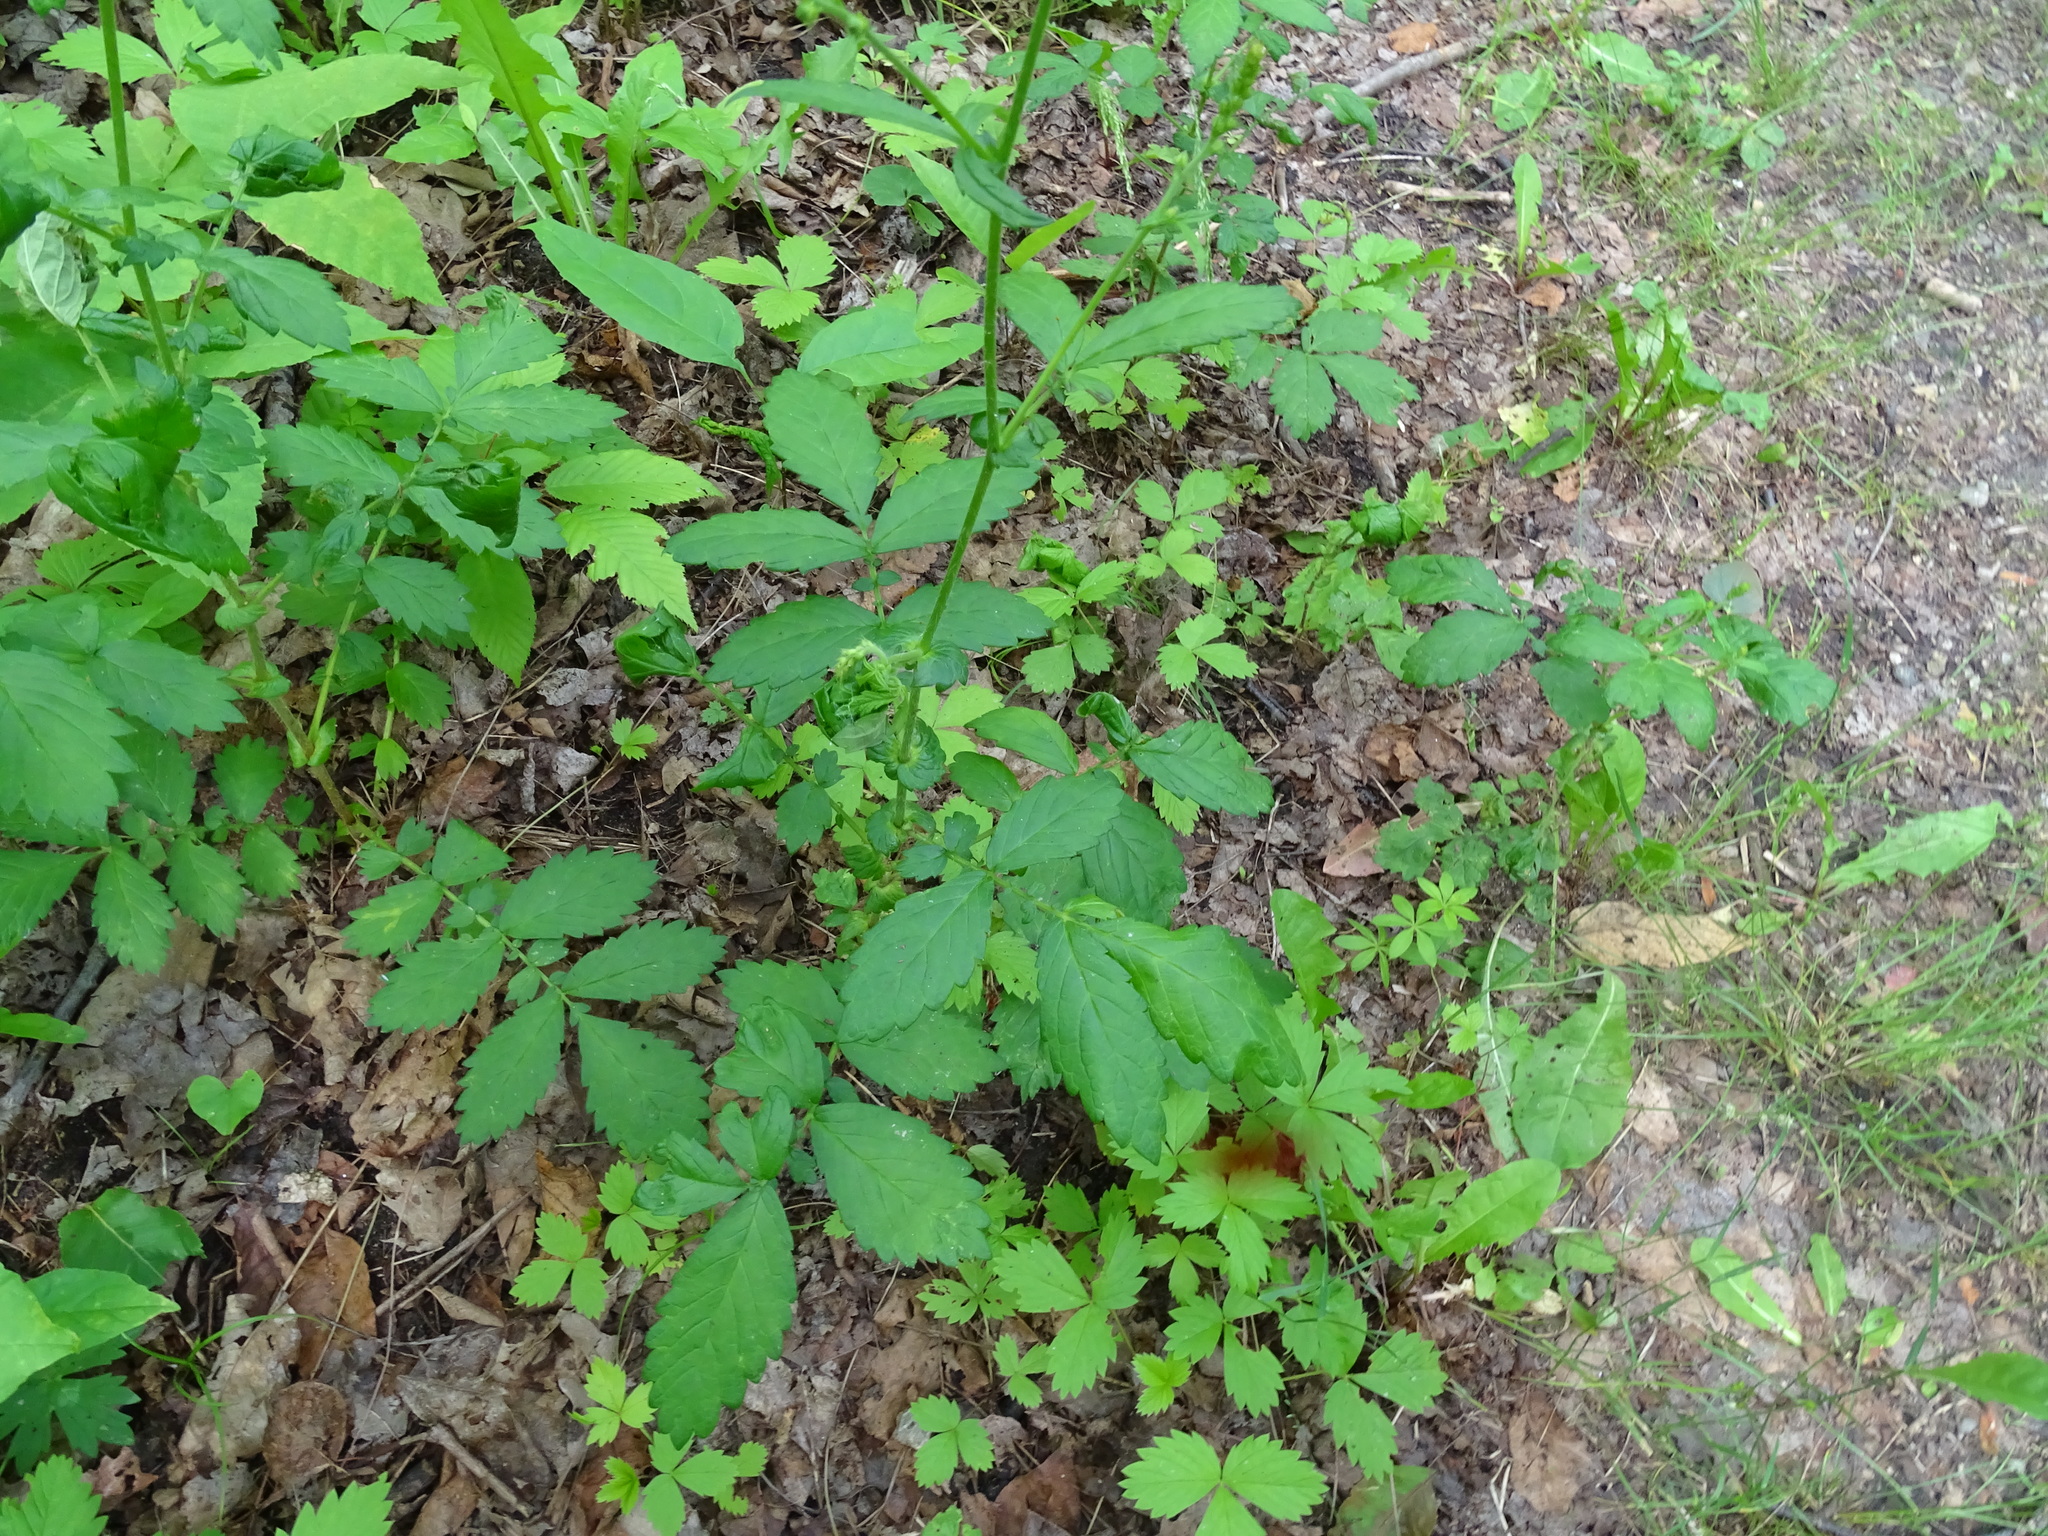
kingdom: Plantae
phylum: Tracheophyta
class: Magnoliopsida
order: Rosales
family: Rosaceae
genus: Agrimonia
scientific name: Agrimonia gryposepala
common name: Common agrimony
